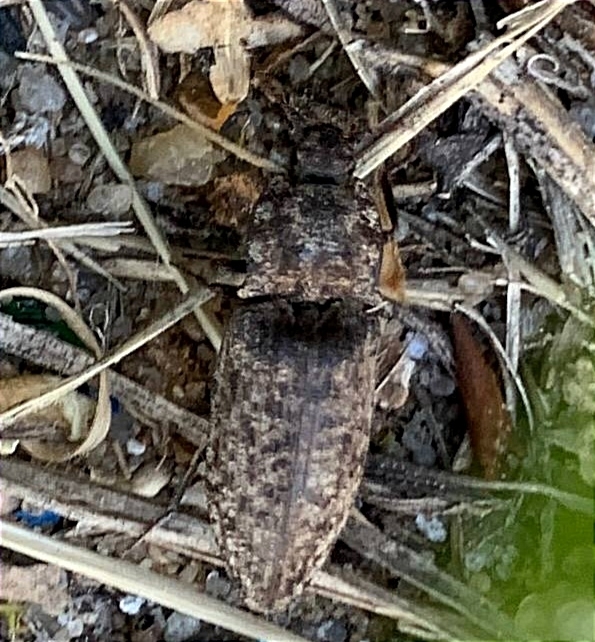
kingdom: Animalia
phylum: Arthropoda
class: Insecta
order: Coleoptera
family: Elateridae
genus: Agrypnus
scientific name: Agrypnus murinus
